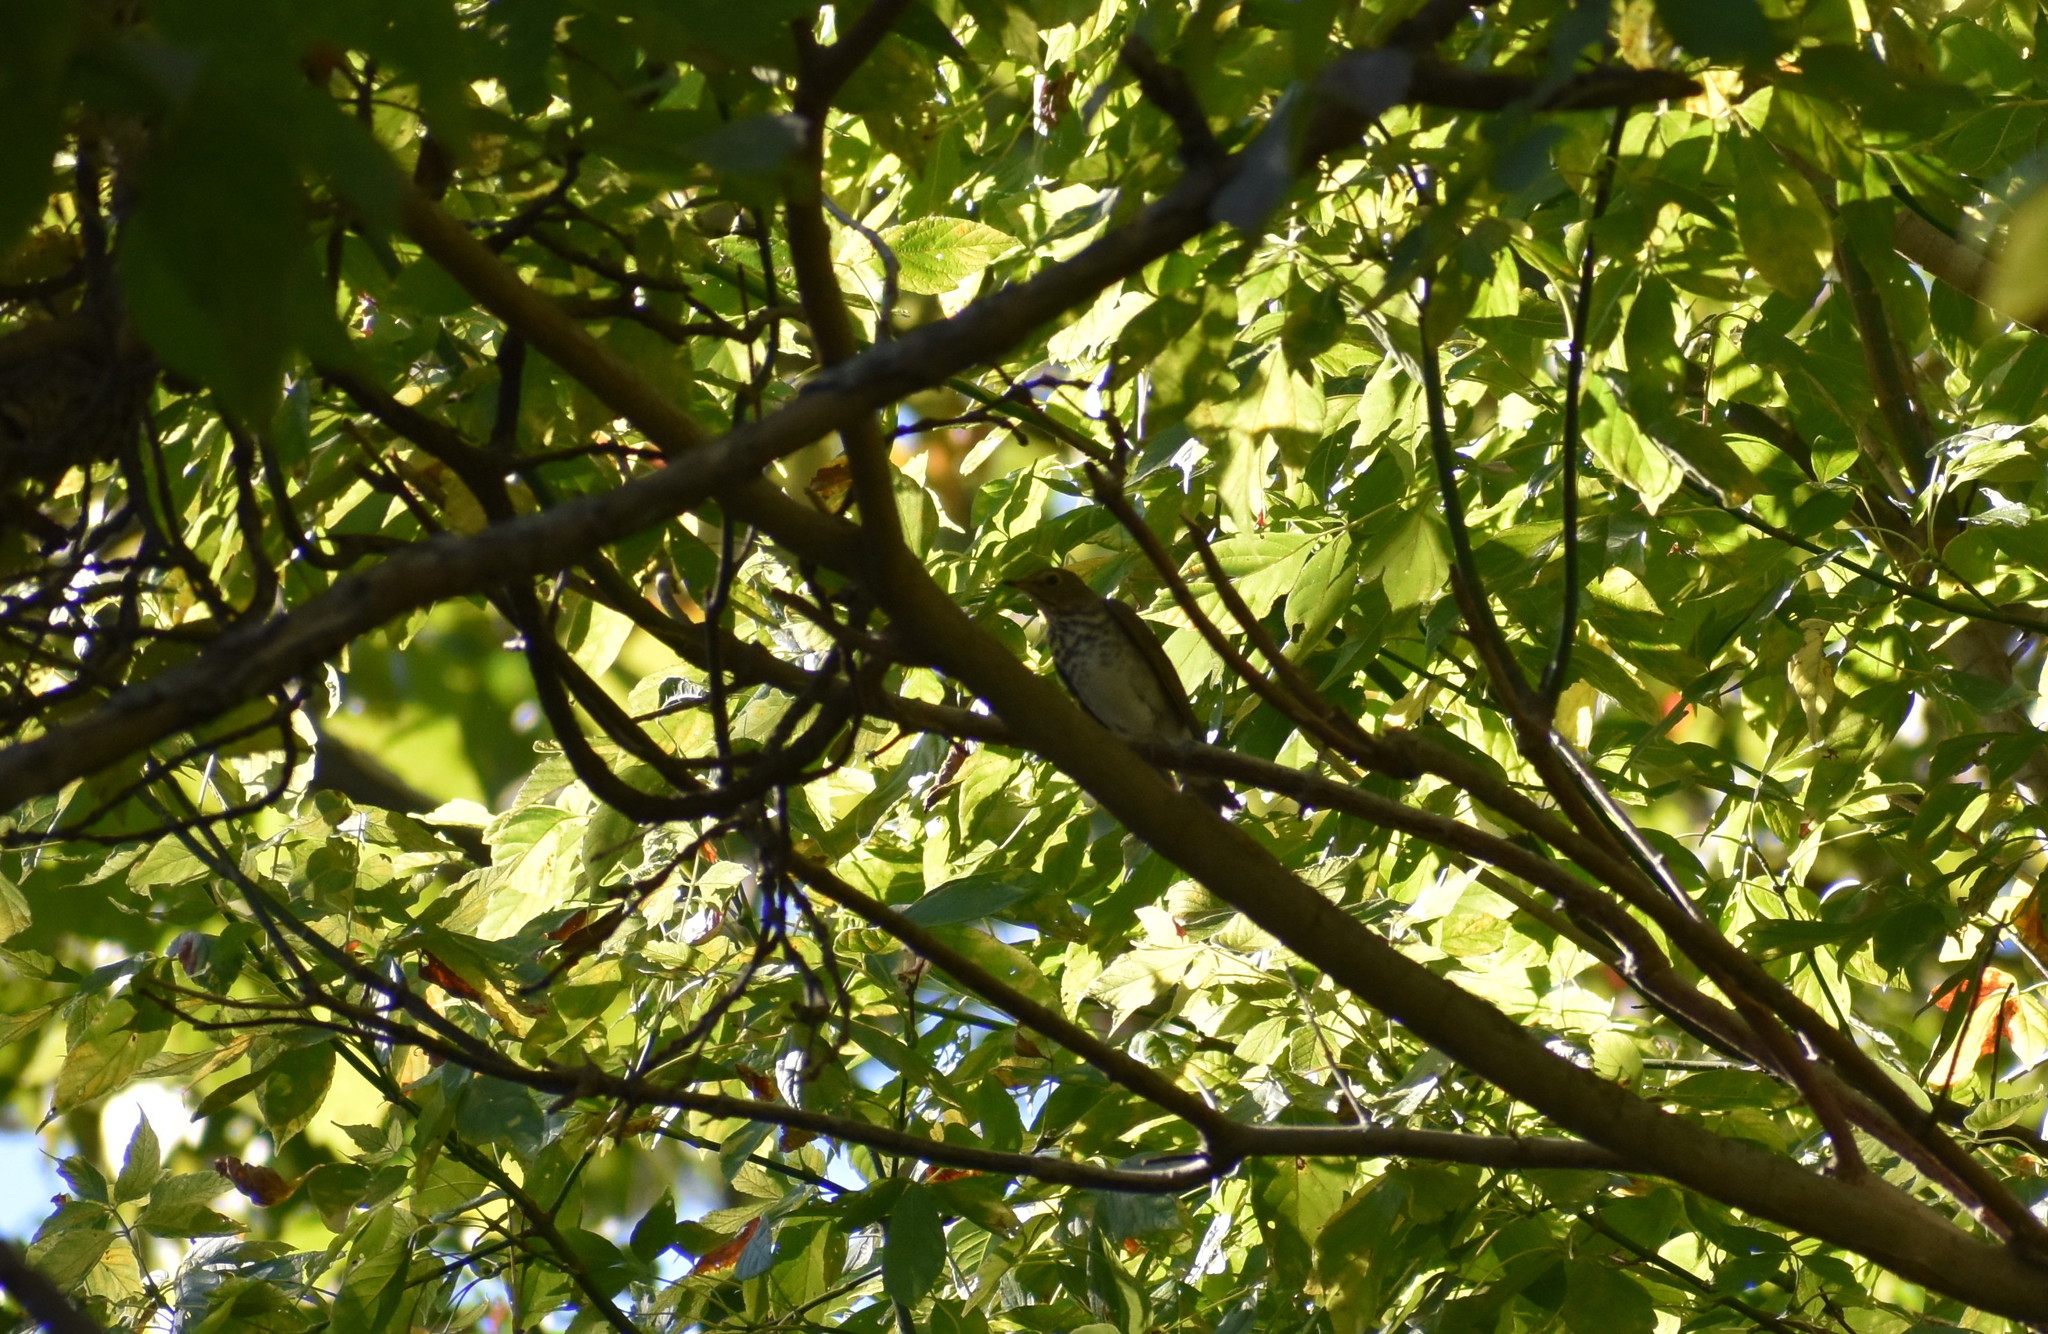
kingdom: Animalia
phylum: Chordata
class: Aves
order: Passeriformes
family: Turdidae
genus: Catharus
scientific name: Catharus ustulatus
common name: Swainson's thrush
